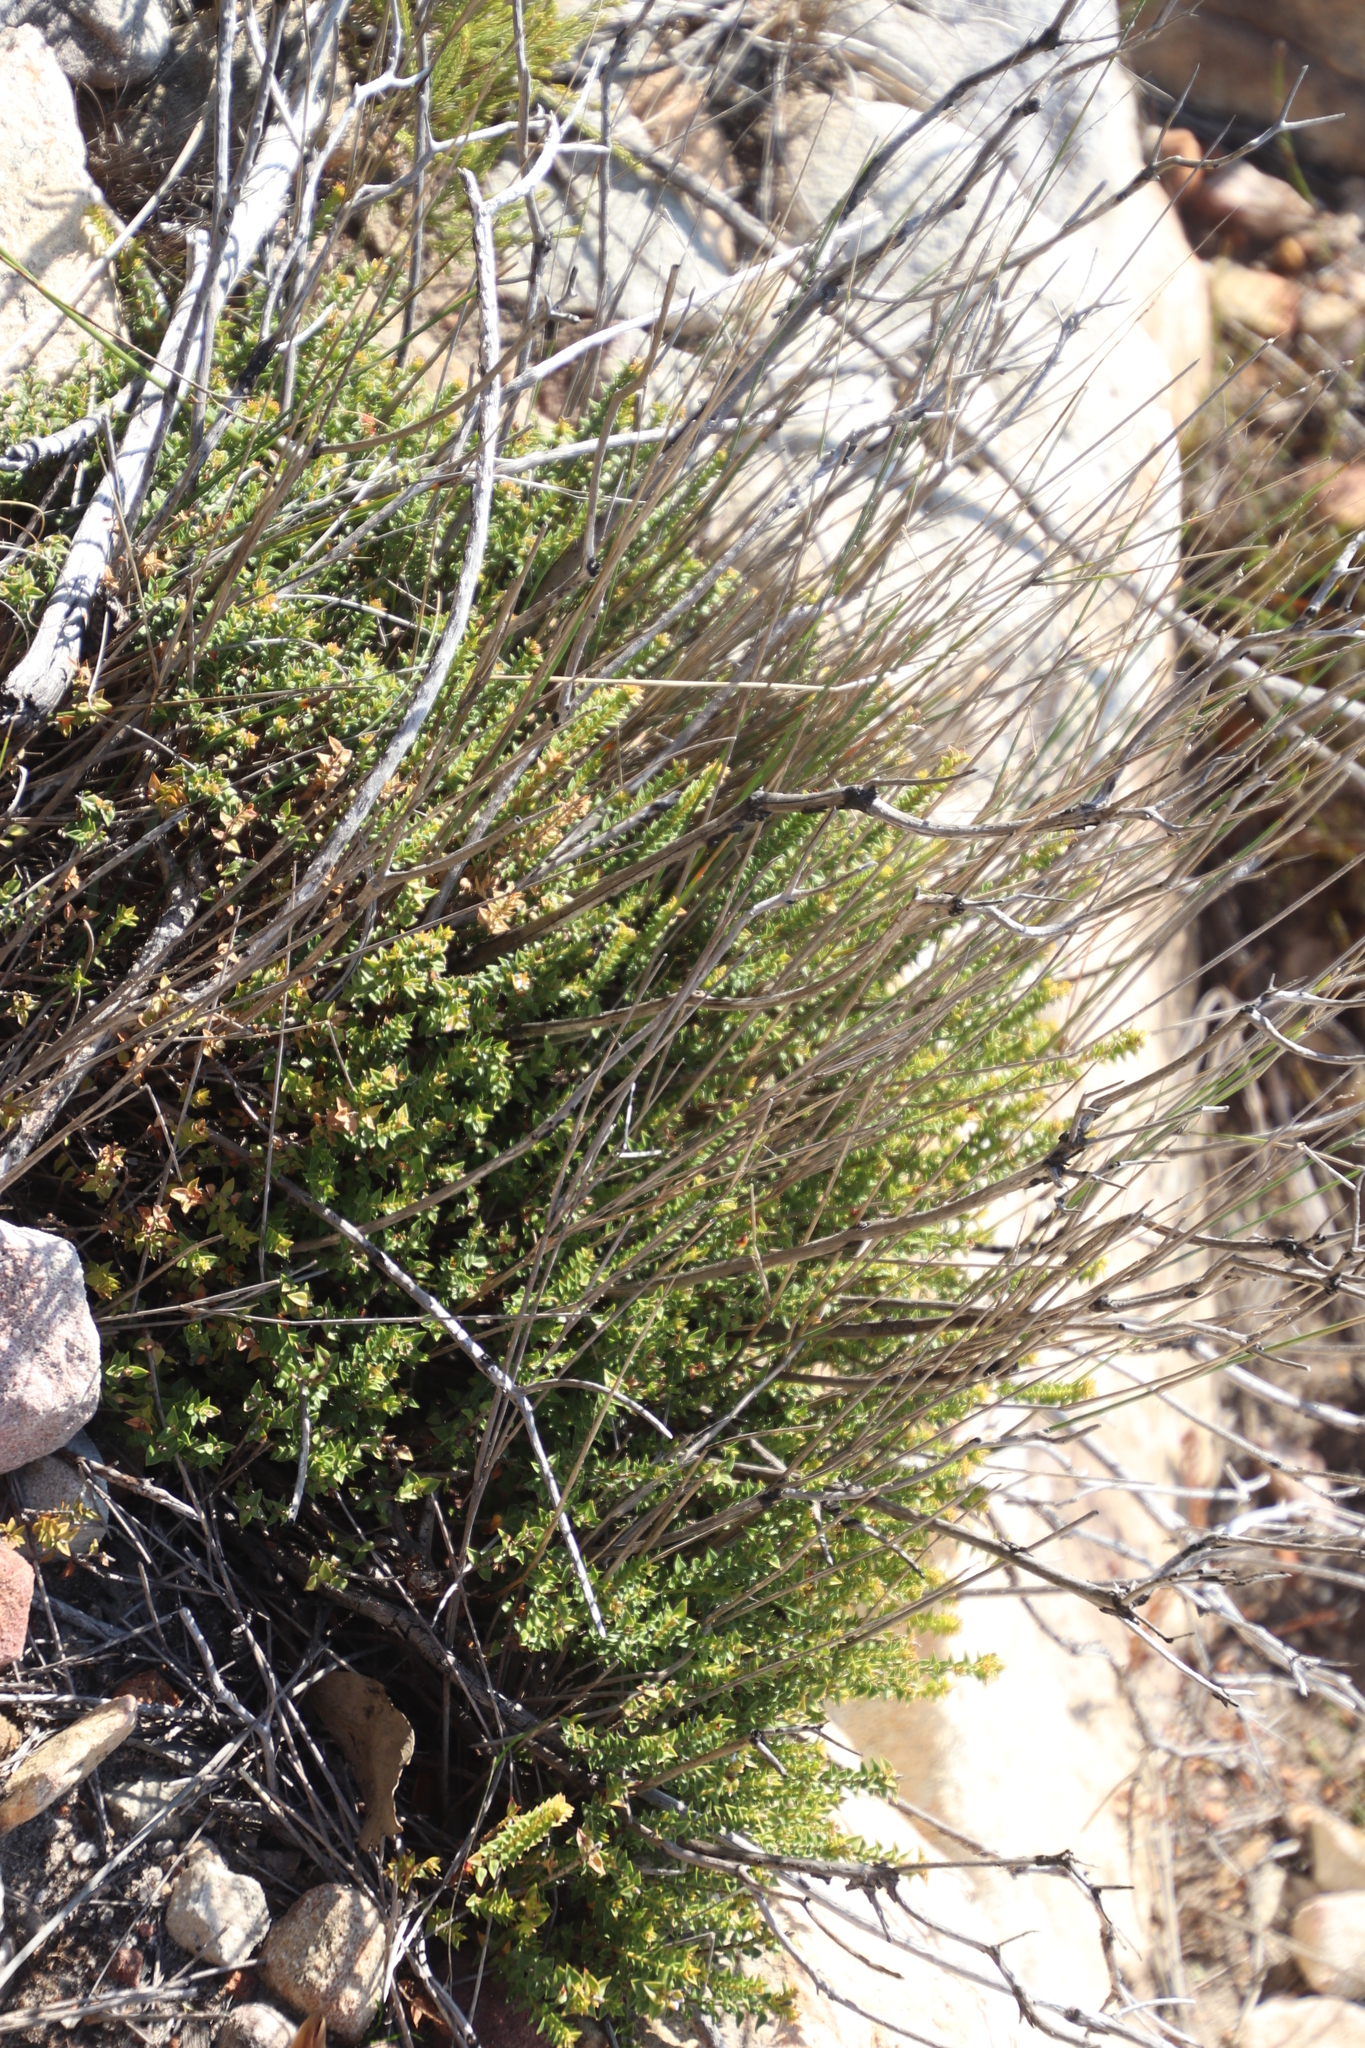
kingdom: Plantae
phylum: Tracheophyta
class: Magnoliopsida
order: Myrtales
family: Penaeaceae
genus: Penaea
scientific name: Penaea mucronata
